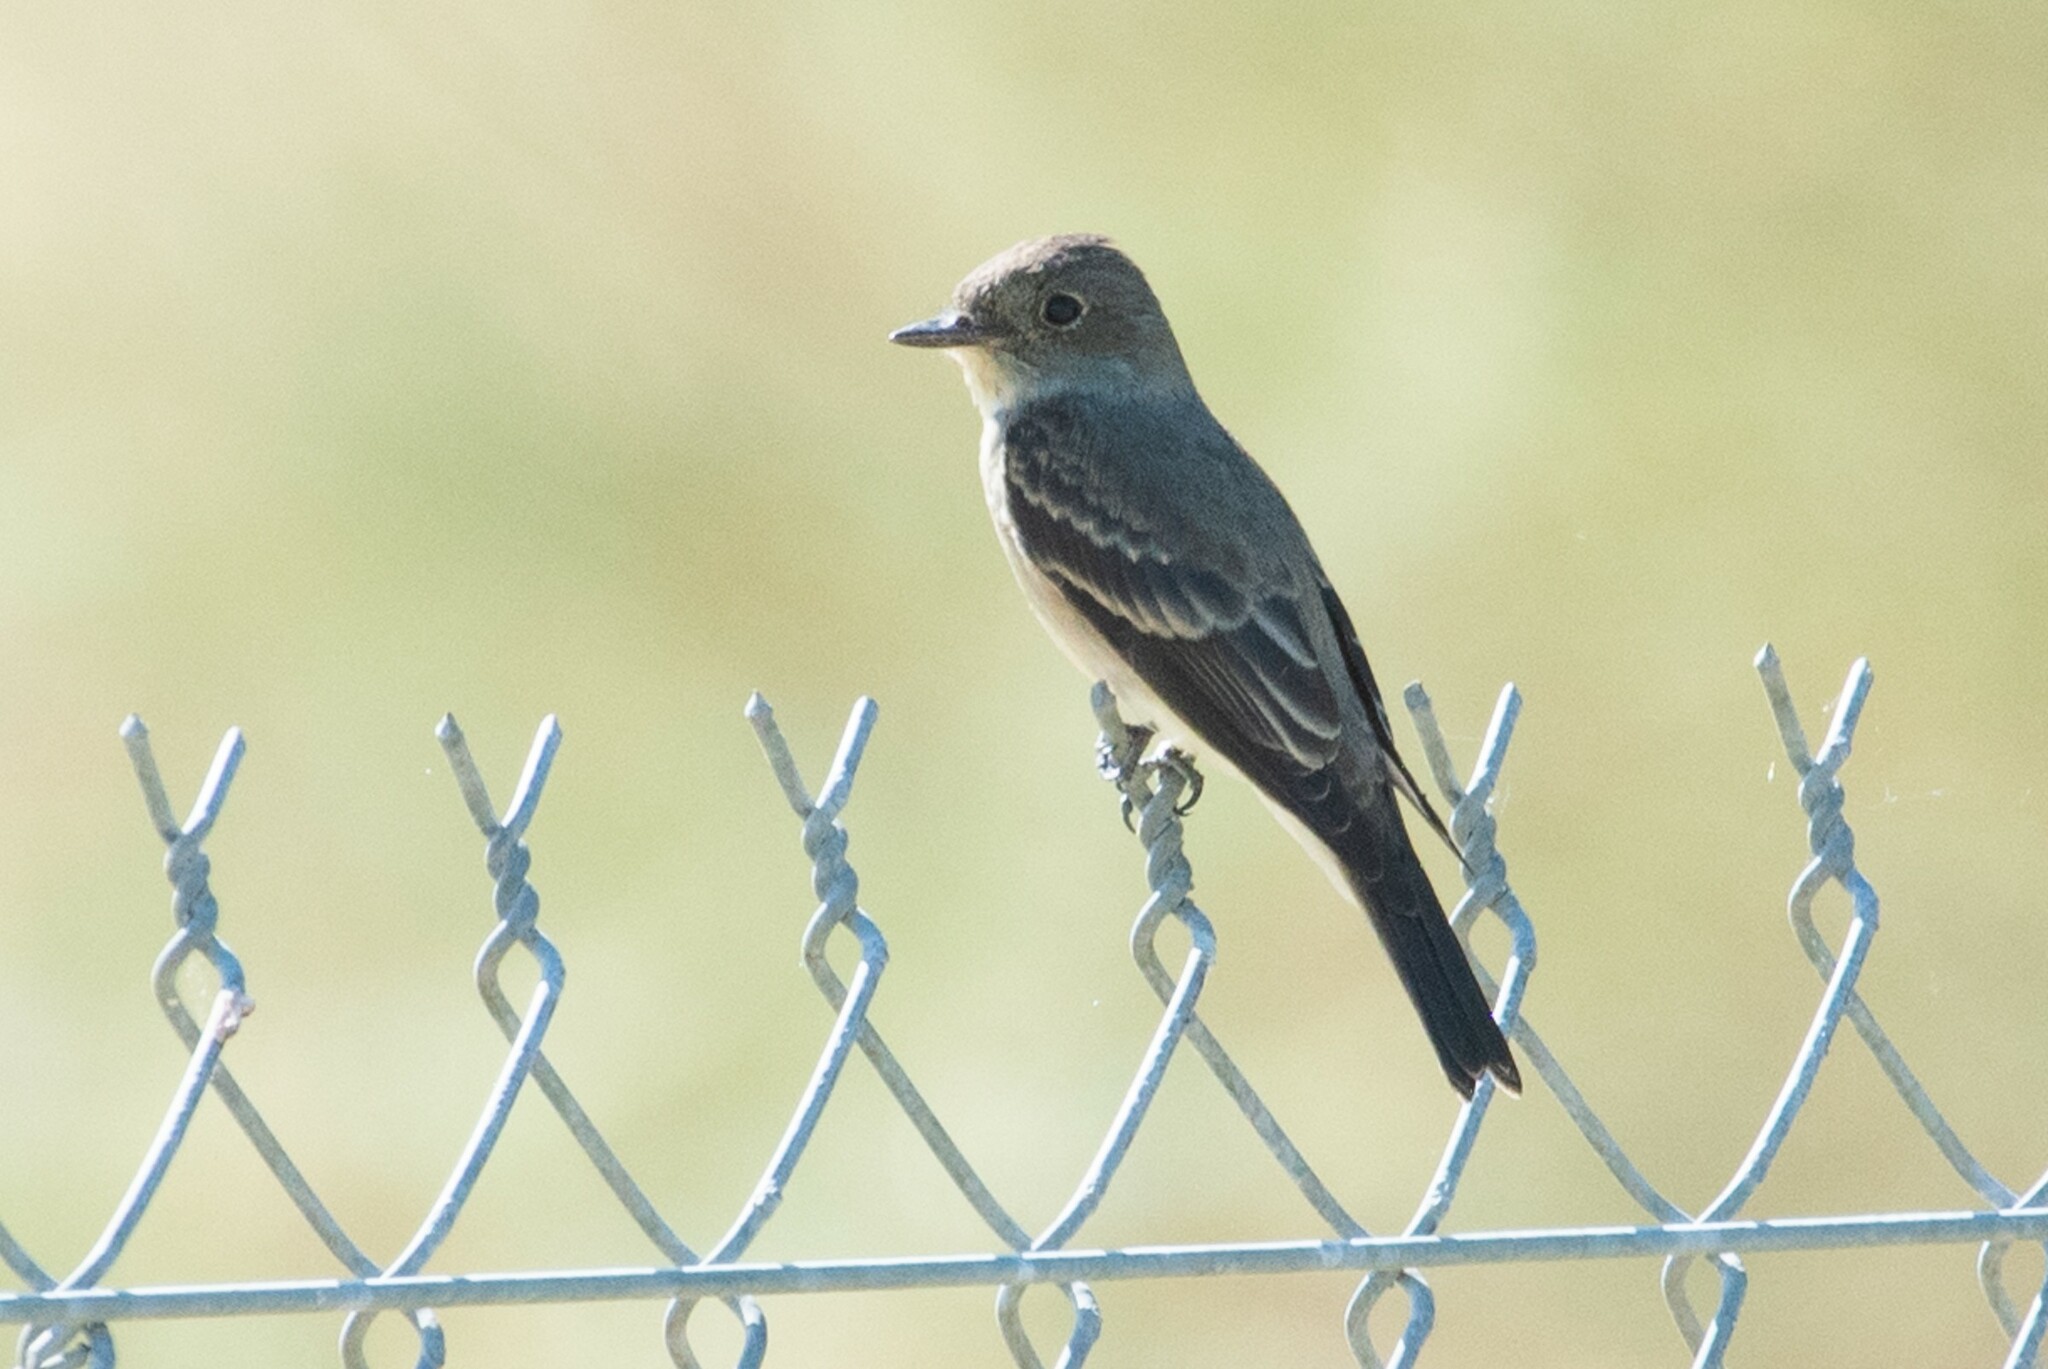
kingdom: Animalia
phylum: Chordata
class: Aves
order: Passeriformes
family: Tyrannidae
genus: Contopus
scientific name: Contopus sordidulus
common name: Western wood-pewee
